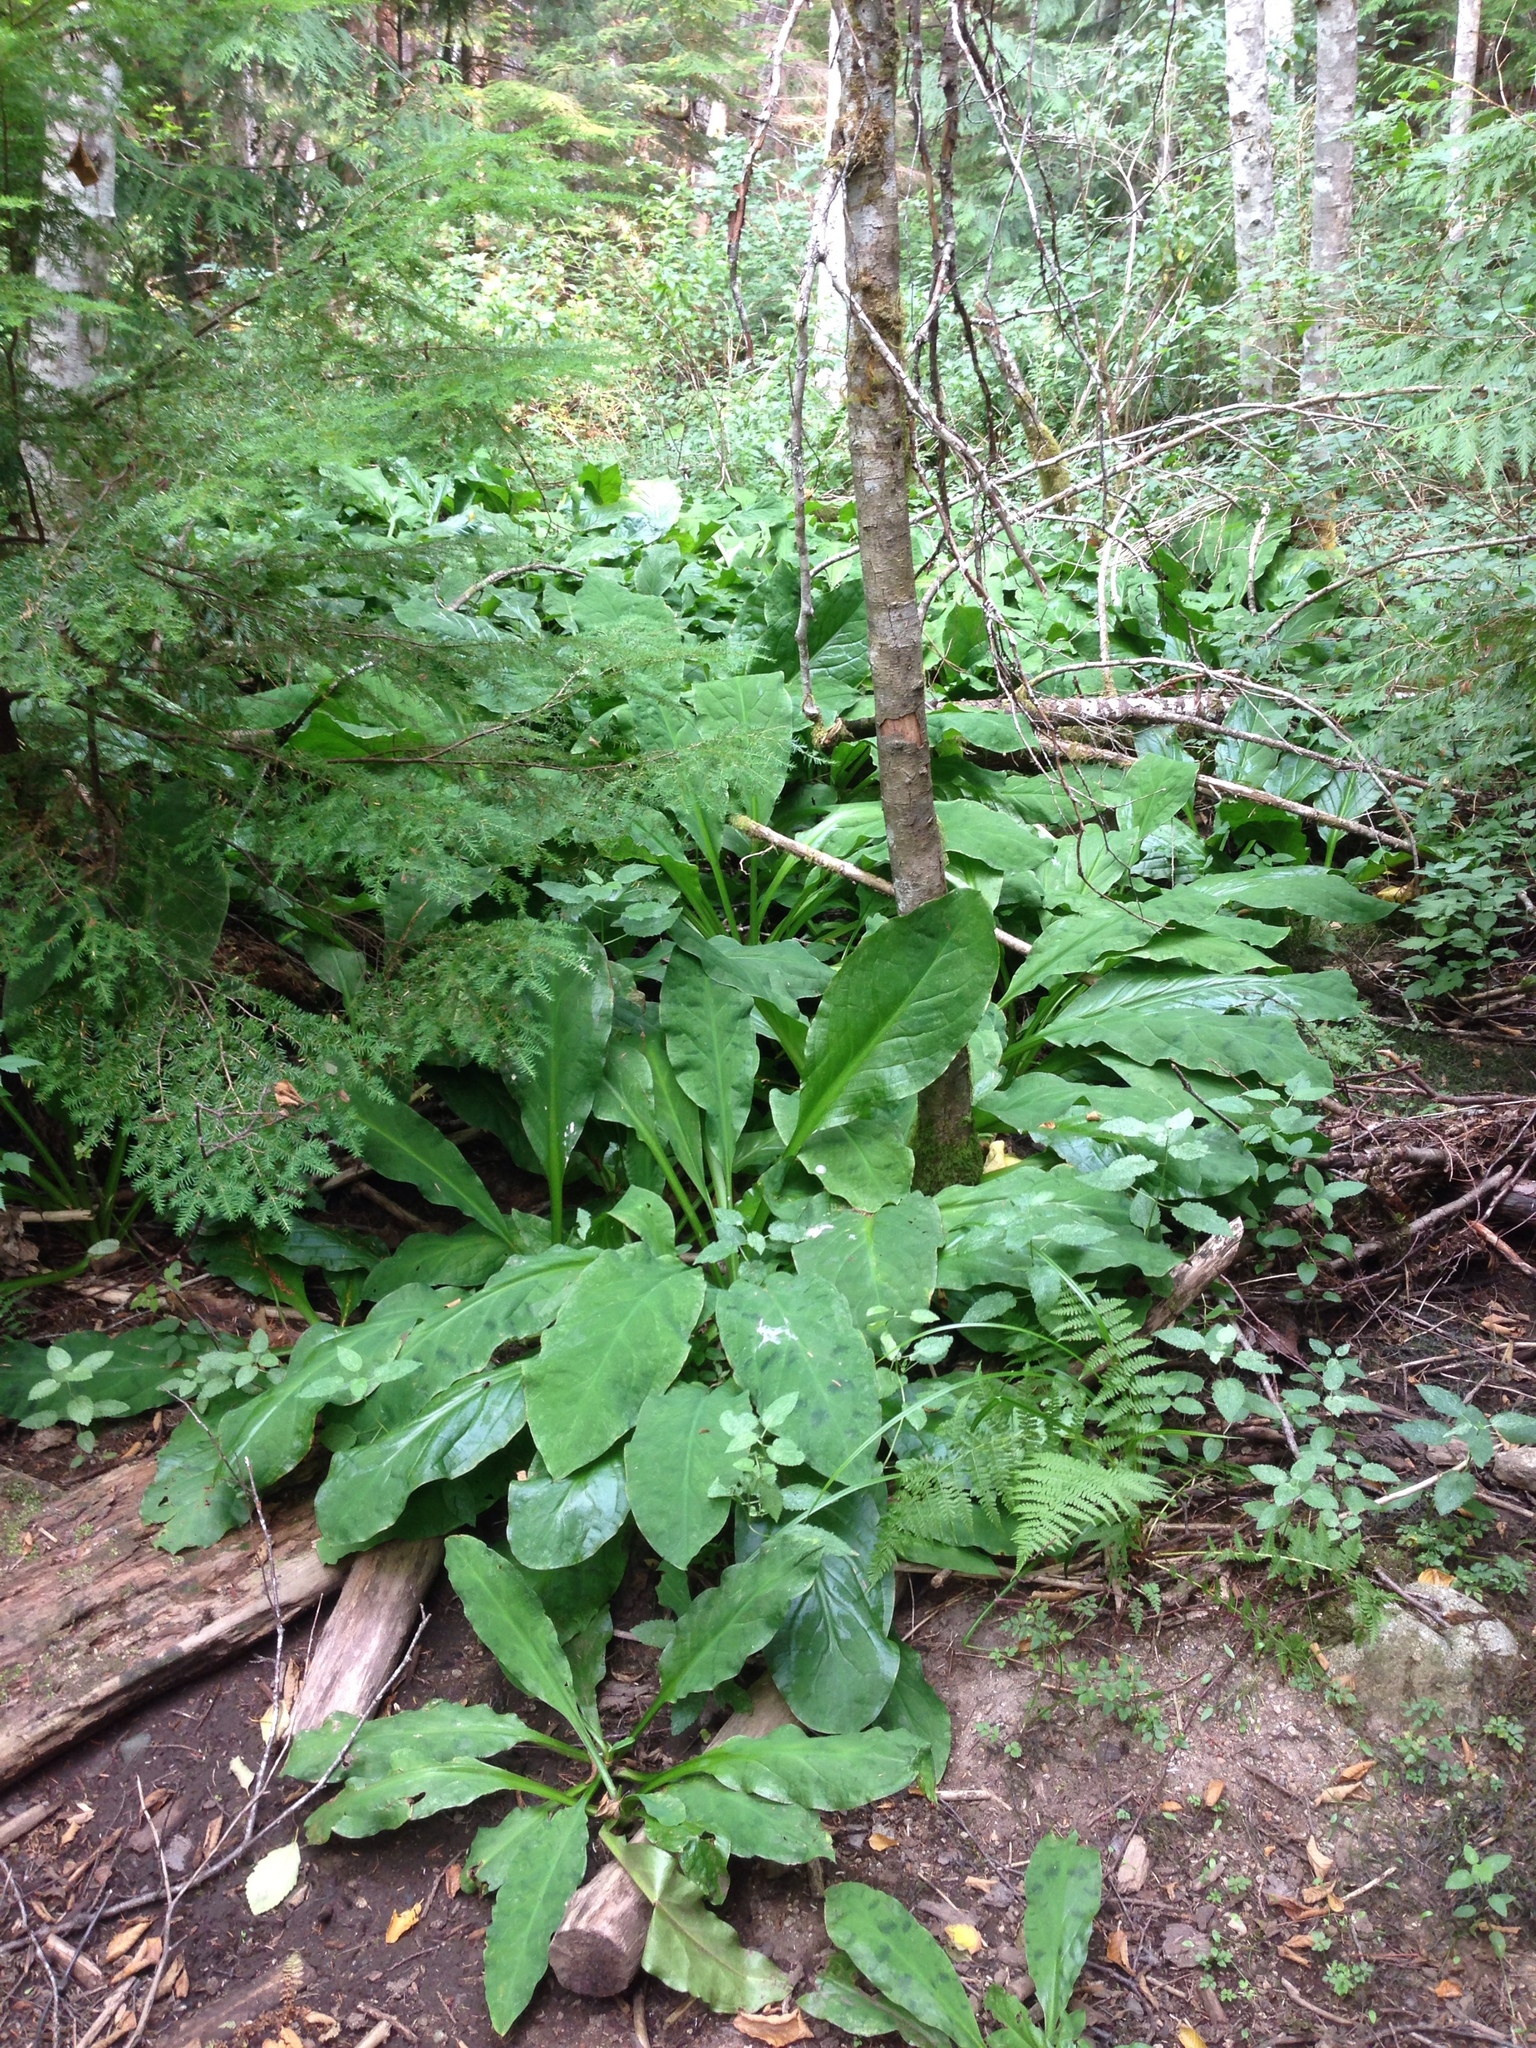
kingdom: Plantae
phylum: Tracheophyta
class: Liliopsida
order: Alismatales
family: Araceae
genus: Lysichiton
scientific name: Lysichiton americanus
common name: American skunk cabbage
